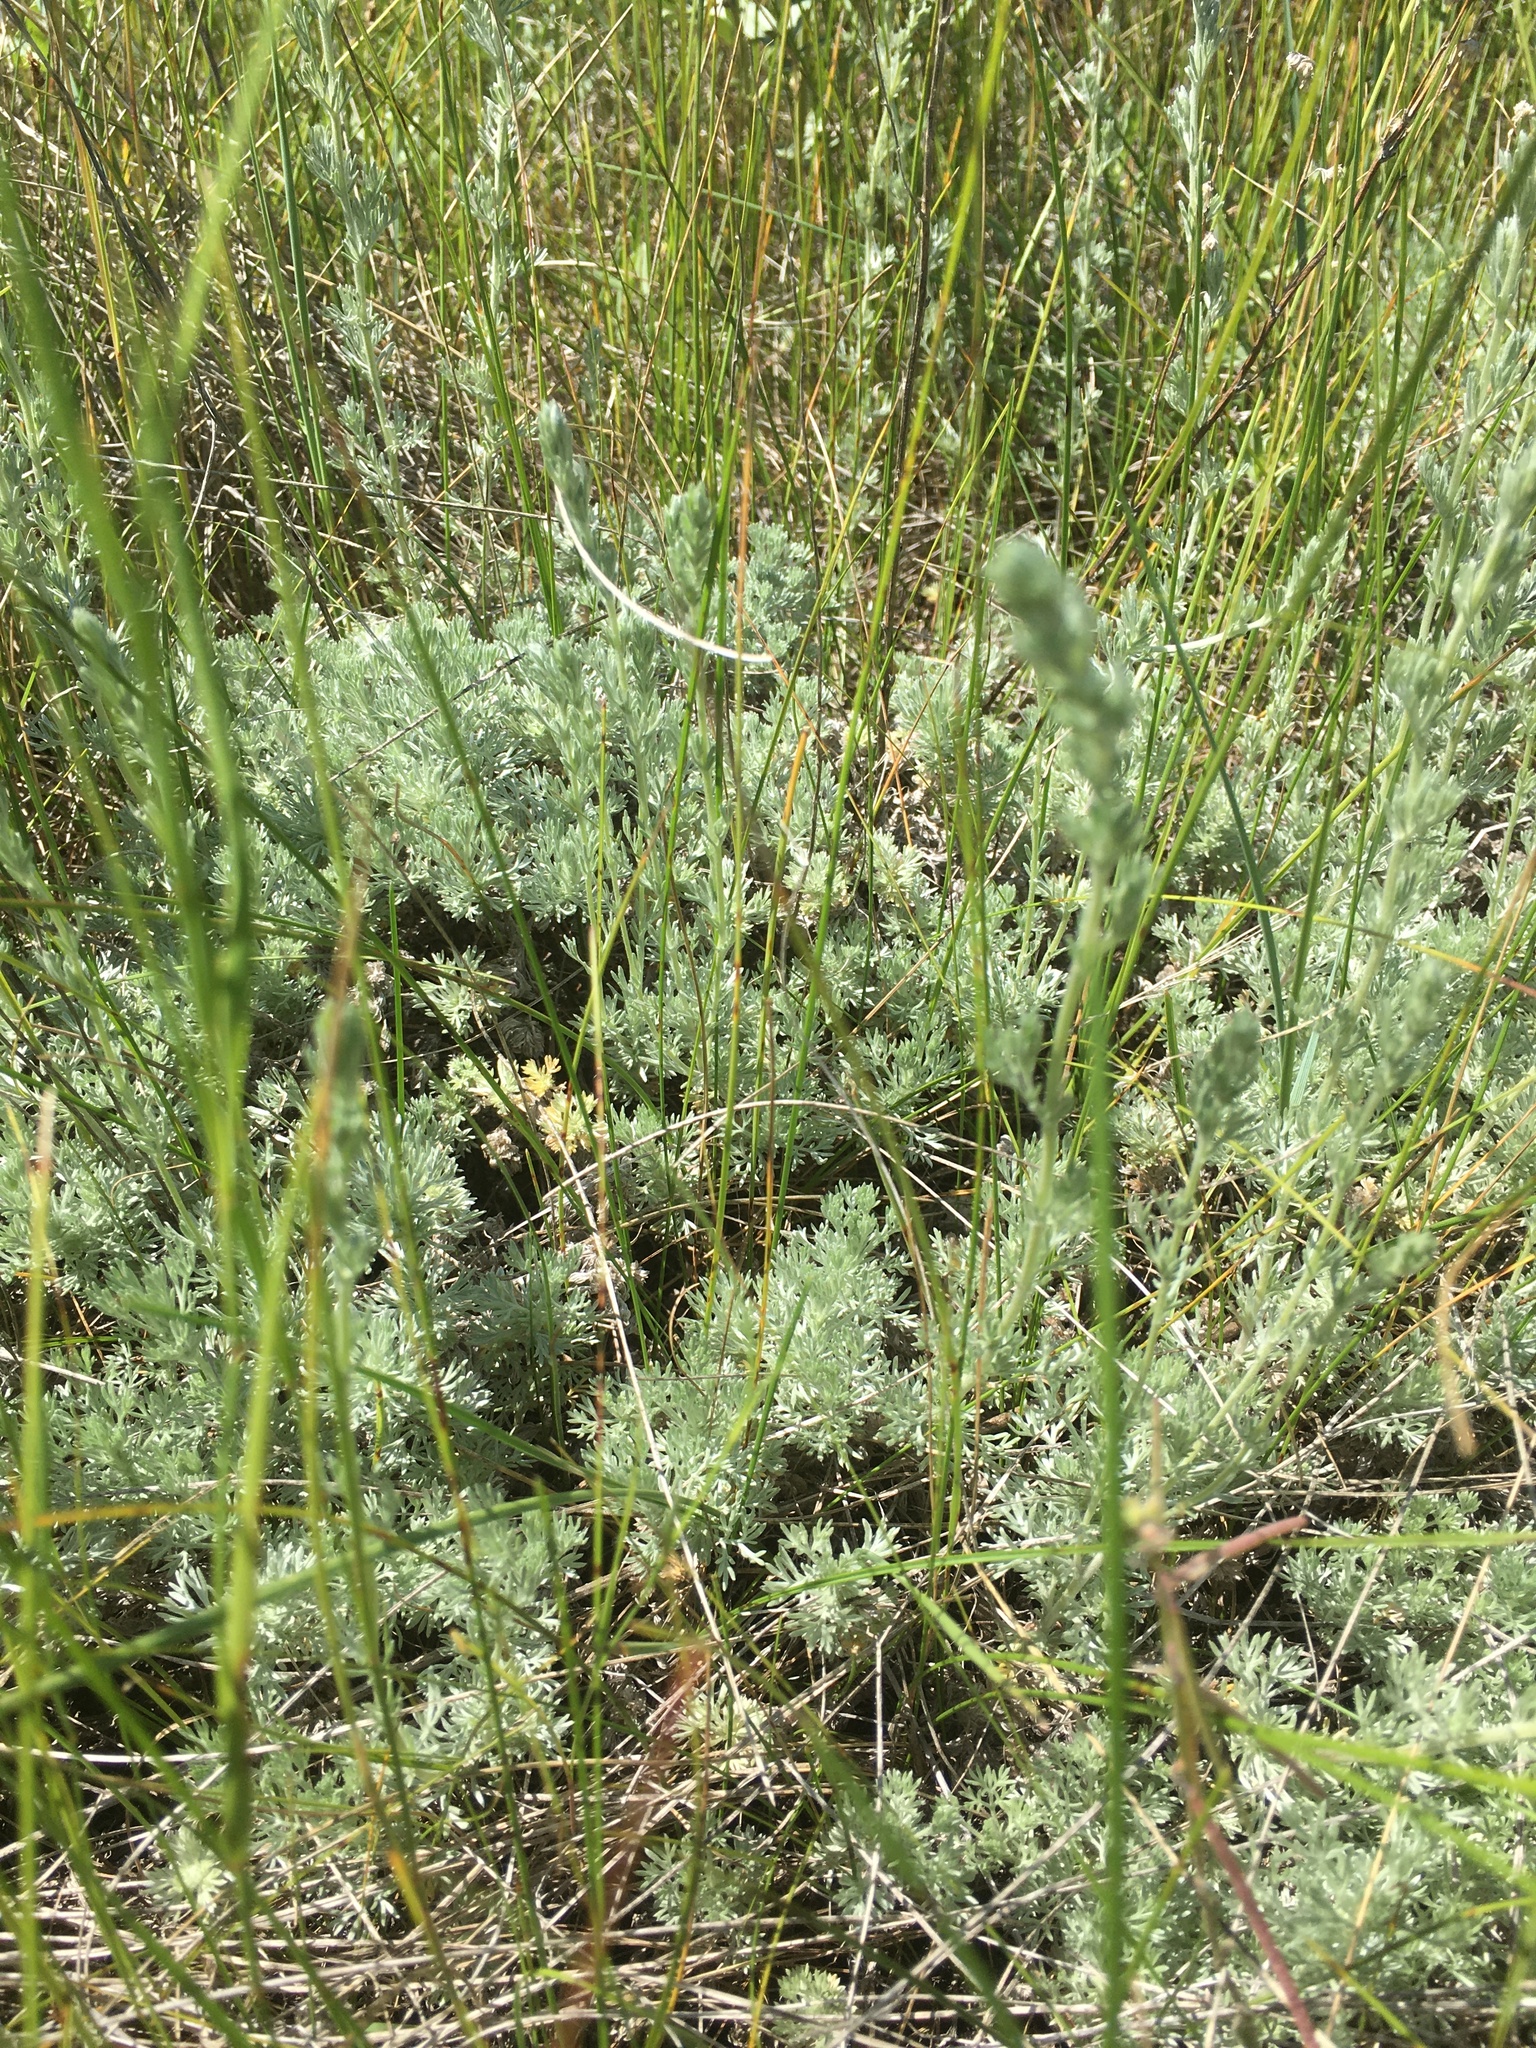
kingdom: Plantae
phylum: Tracheophyta
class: Magnoliopsida
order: Asterales
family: Asteraceae
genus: Artemisia
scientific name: Artemisia frigida
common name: Prairie sagewort
